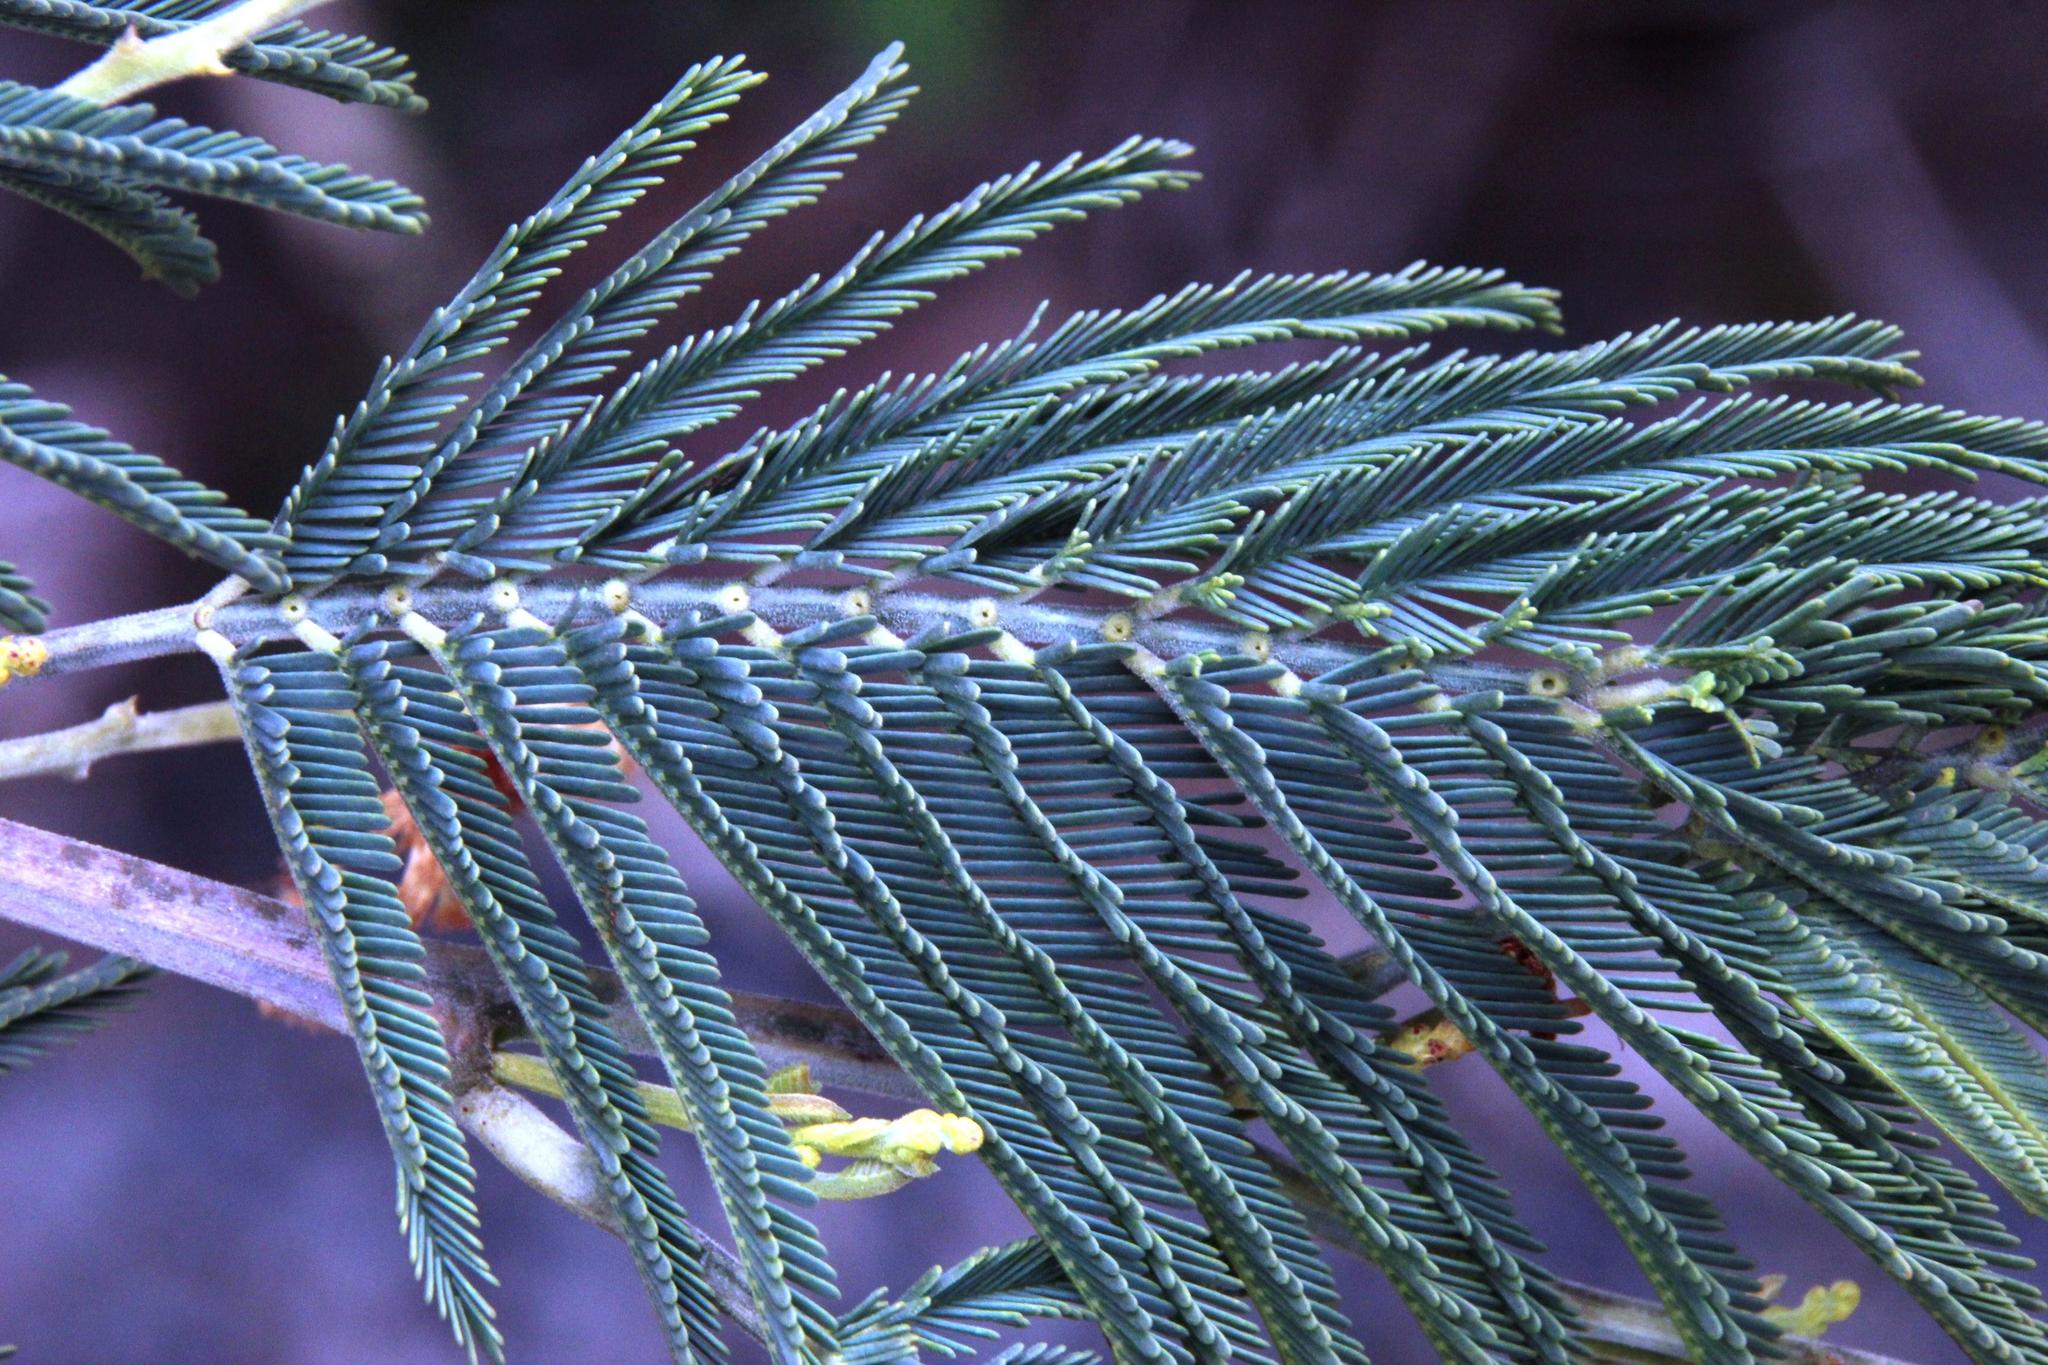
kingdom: Plantae
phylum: Tracheophyta
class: Magnoliopsida
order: Fabales
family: Fabaceae
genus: Acacia
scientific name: Acacia dealbata
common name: Silver wattle
